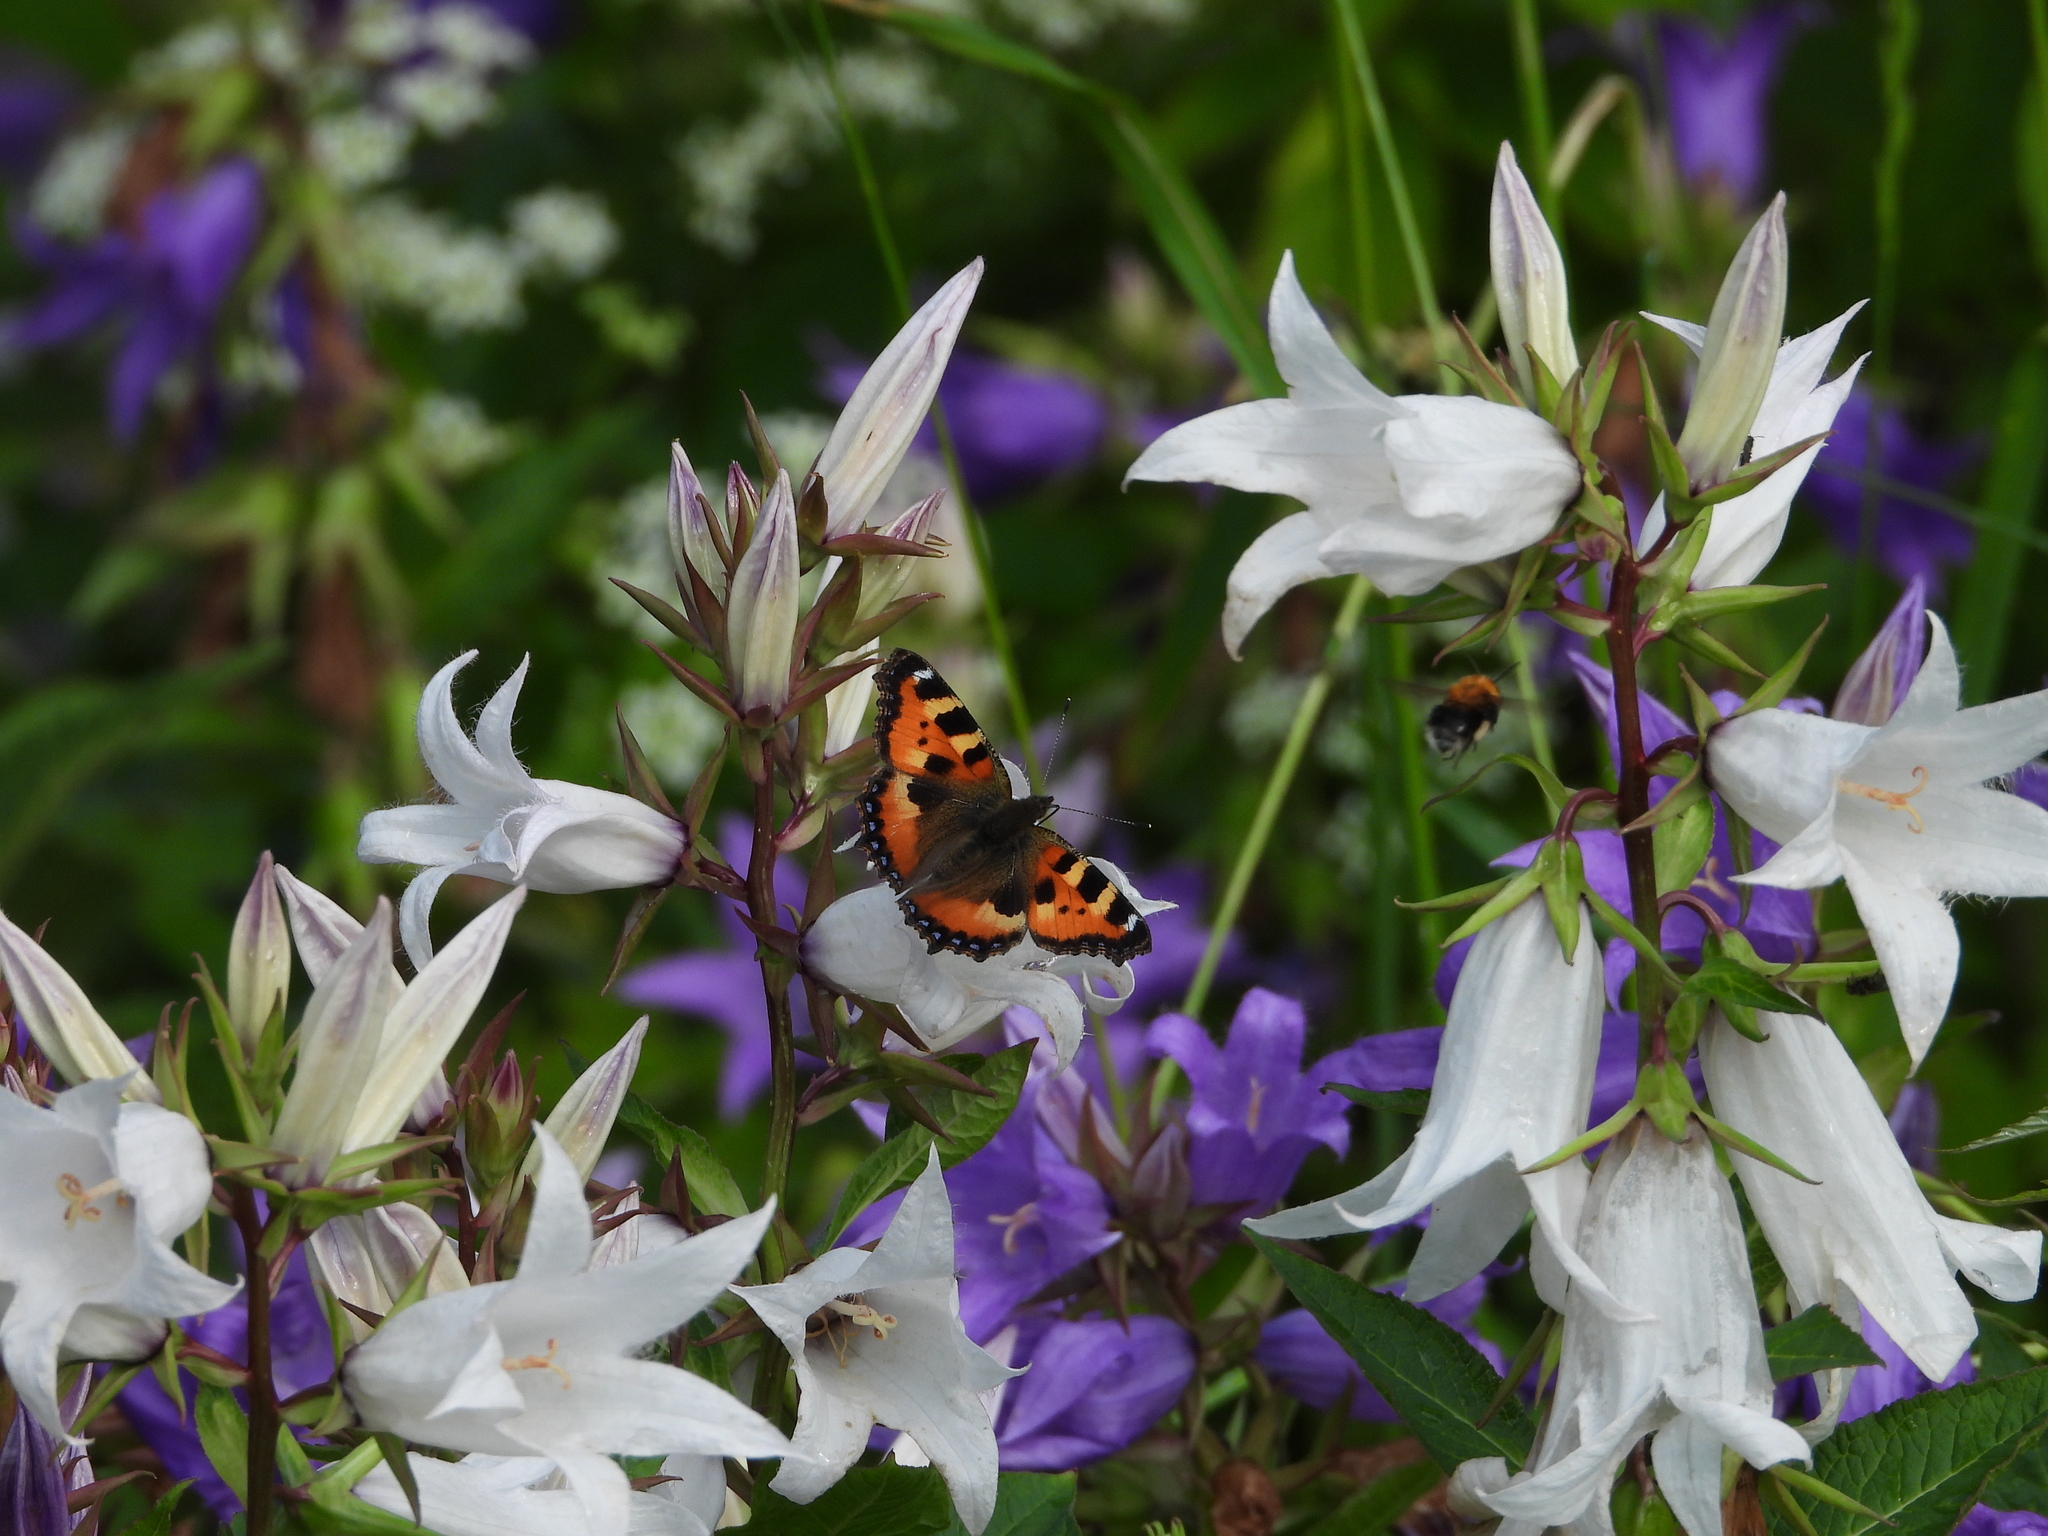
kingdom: Animalia
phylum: Arthropoda
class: Insecta
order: Lepidoptera
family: Nymphalidae
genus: Aglais
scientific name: Aglais urticae
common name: Small tortoiseshell
